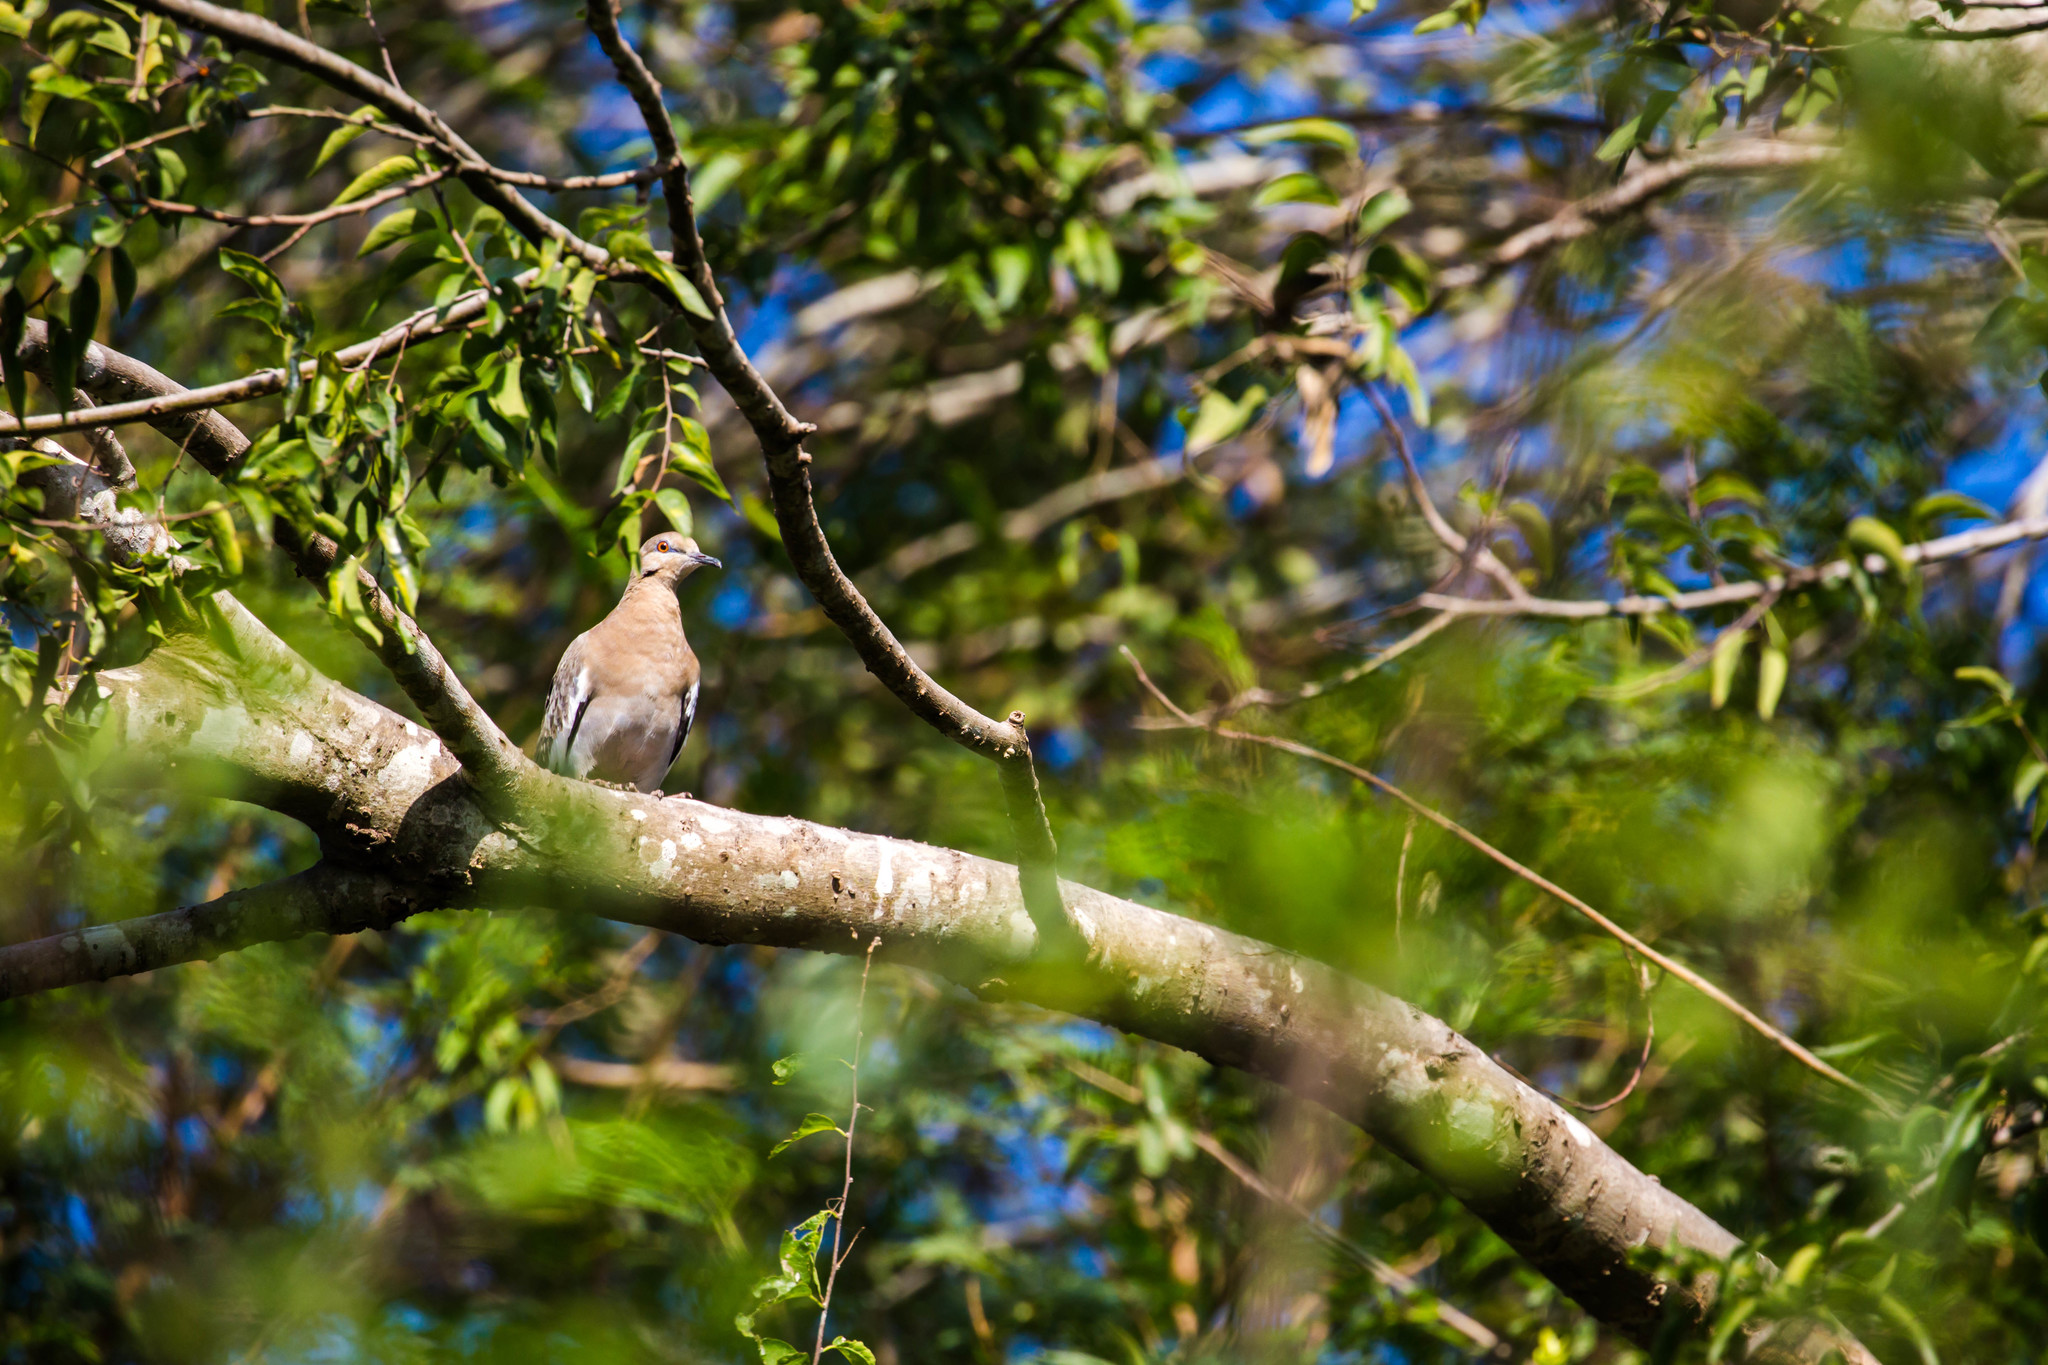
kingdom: Animalia
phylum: Chordata
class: Aves
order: Columbiformes
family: Columbidae
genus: Zenaida
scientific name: Zenaida asiatica
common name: White-winged dove
